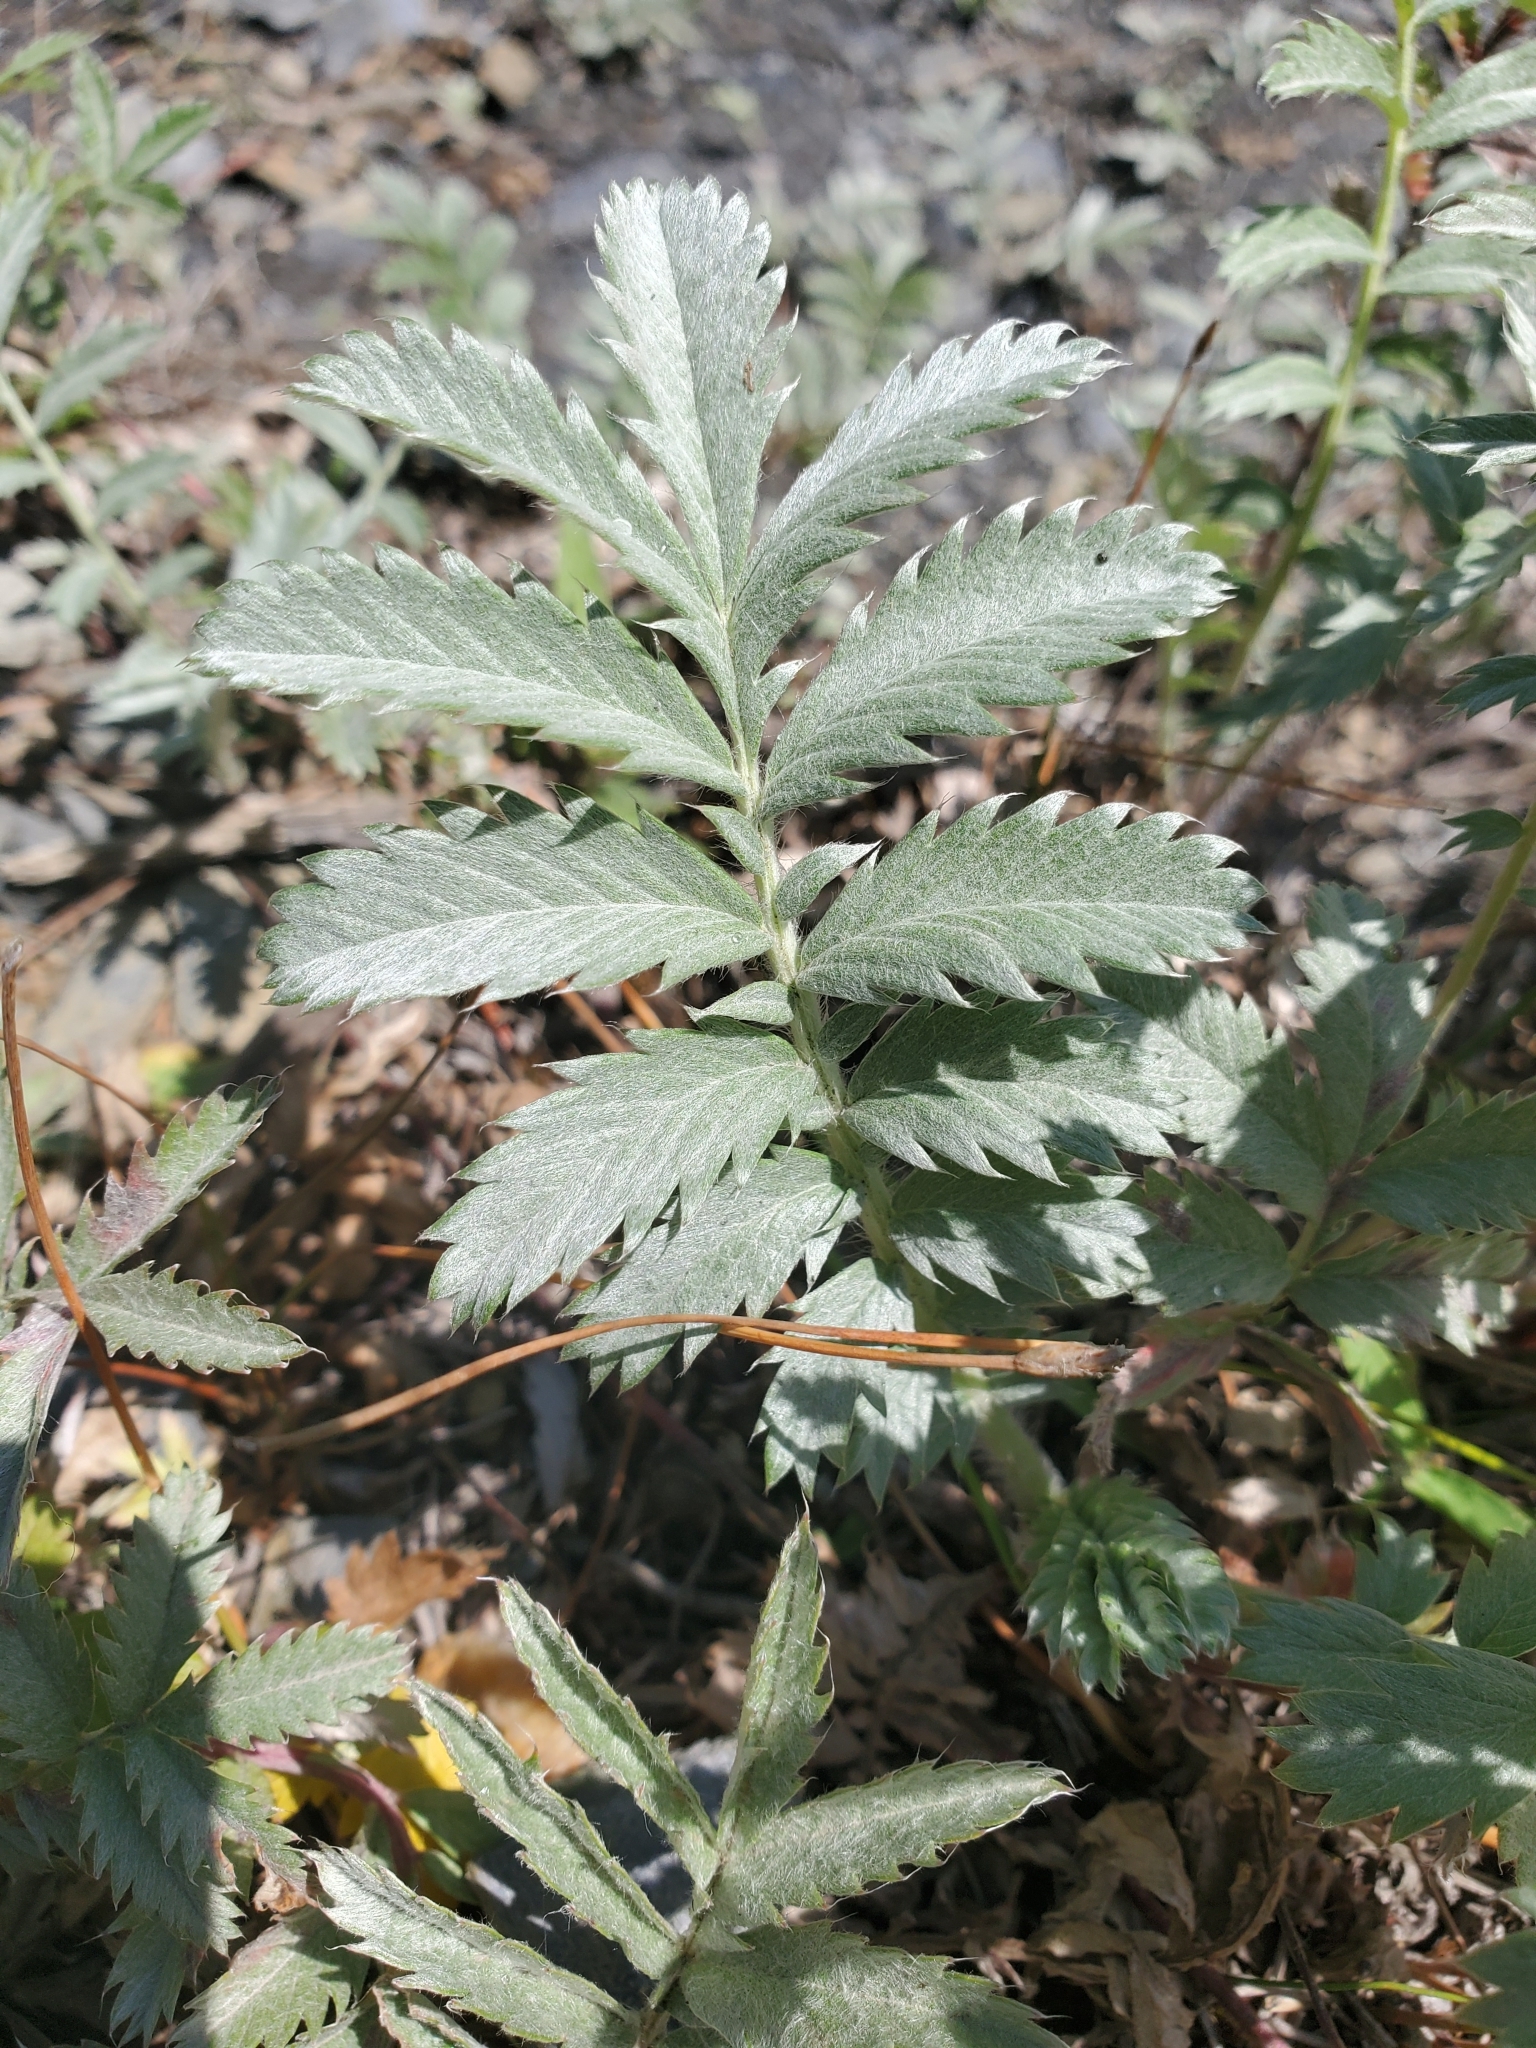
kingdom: Plantae
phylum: Tracheophyta
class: Magnoliopsida
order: Rosales
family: Rosaceae
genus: Argentina
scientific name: Argentina anserina
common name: Common silverweed
